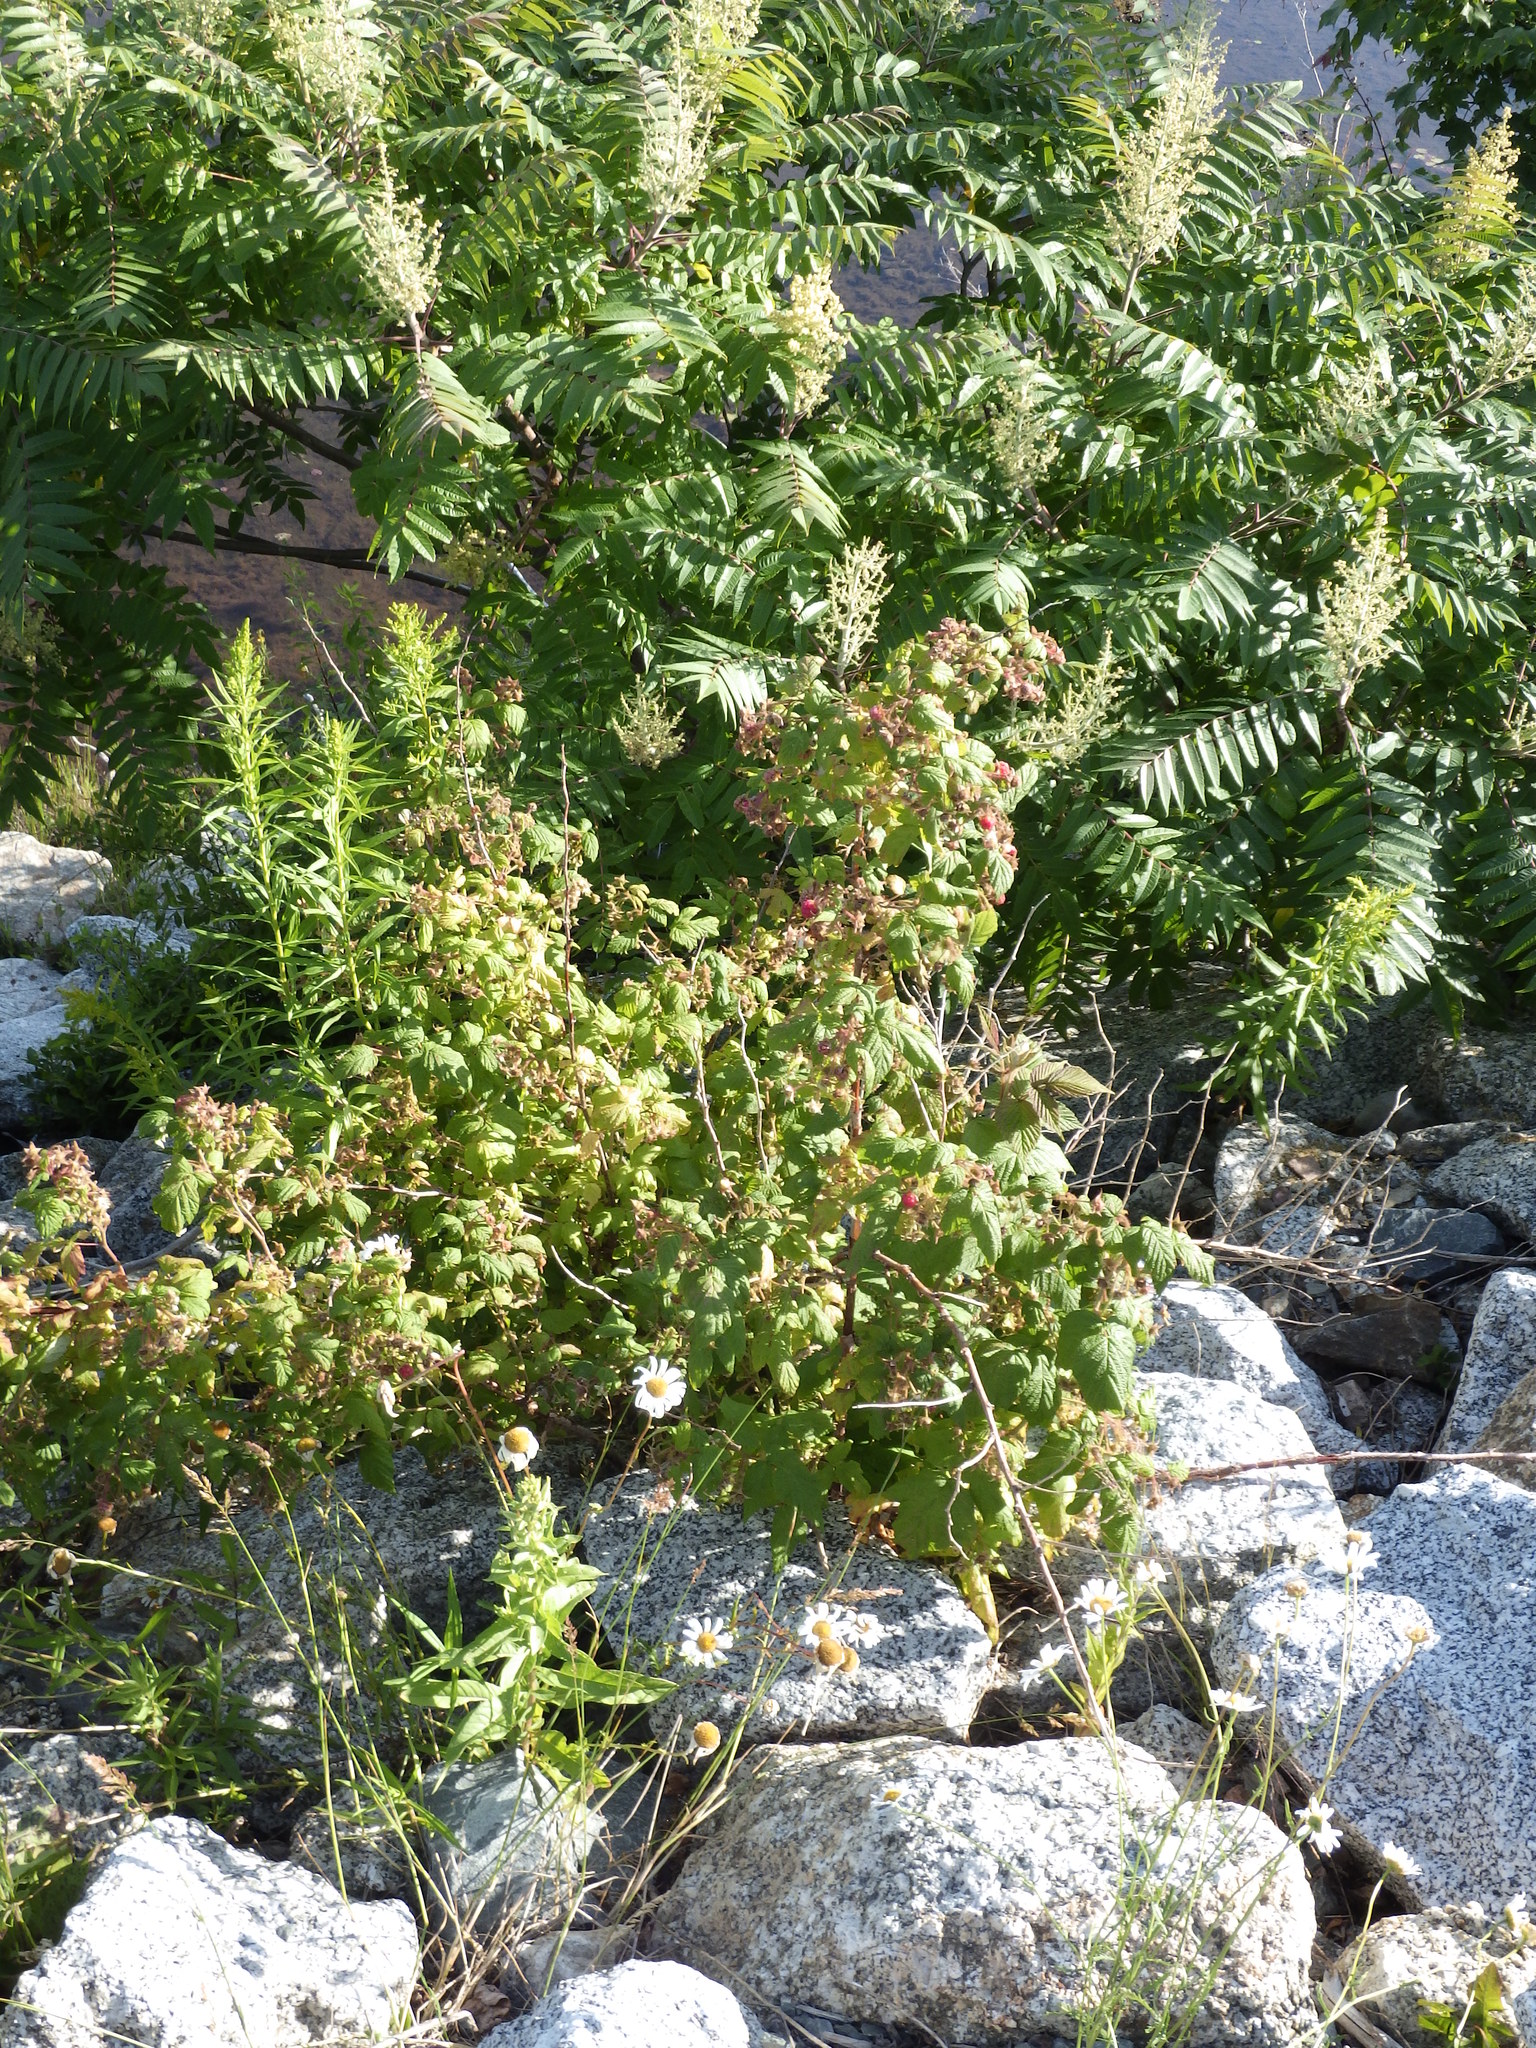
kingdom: Plantae
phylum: Tracheophyta
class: Magnoliopsida
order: Rosales
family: Rosaceae
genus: Rubus
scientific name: Rubus idaeus
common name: Raspberry
